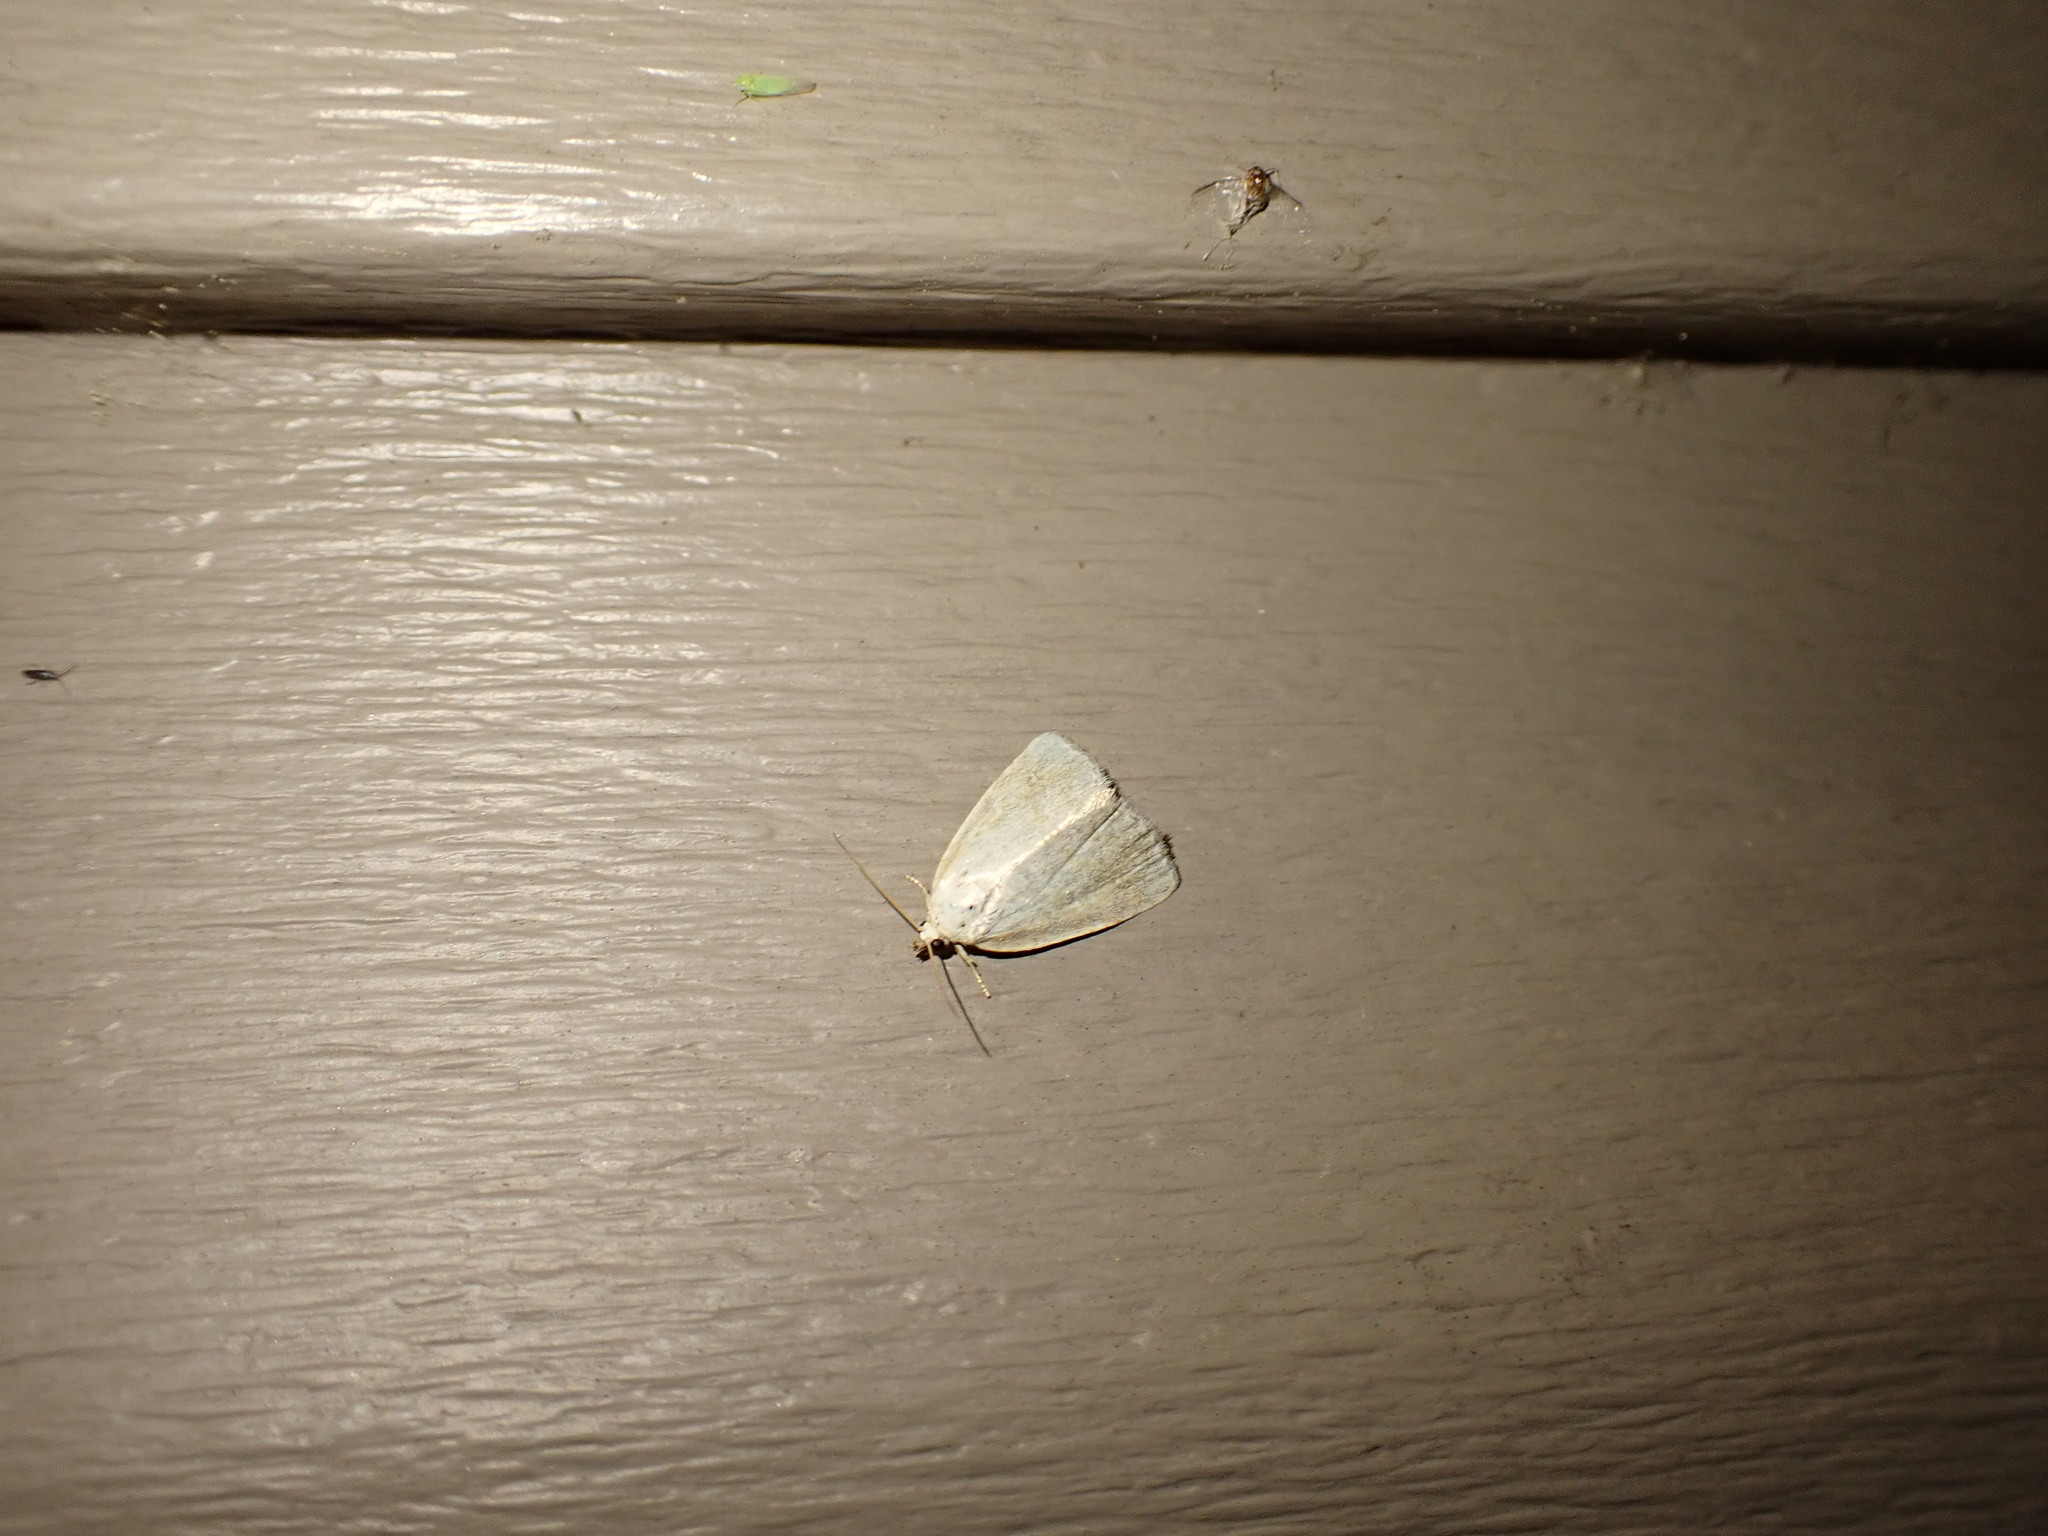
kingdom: Animalia
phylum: Arthropoda
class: Insecta
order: Lepidoptera
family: Noctuidae
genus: Protodeltote
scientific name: Protodeltote albidula
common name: Pale glyph
